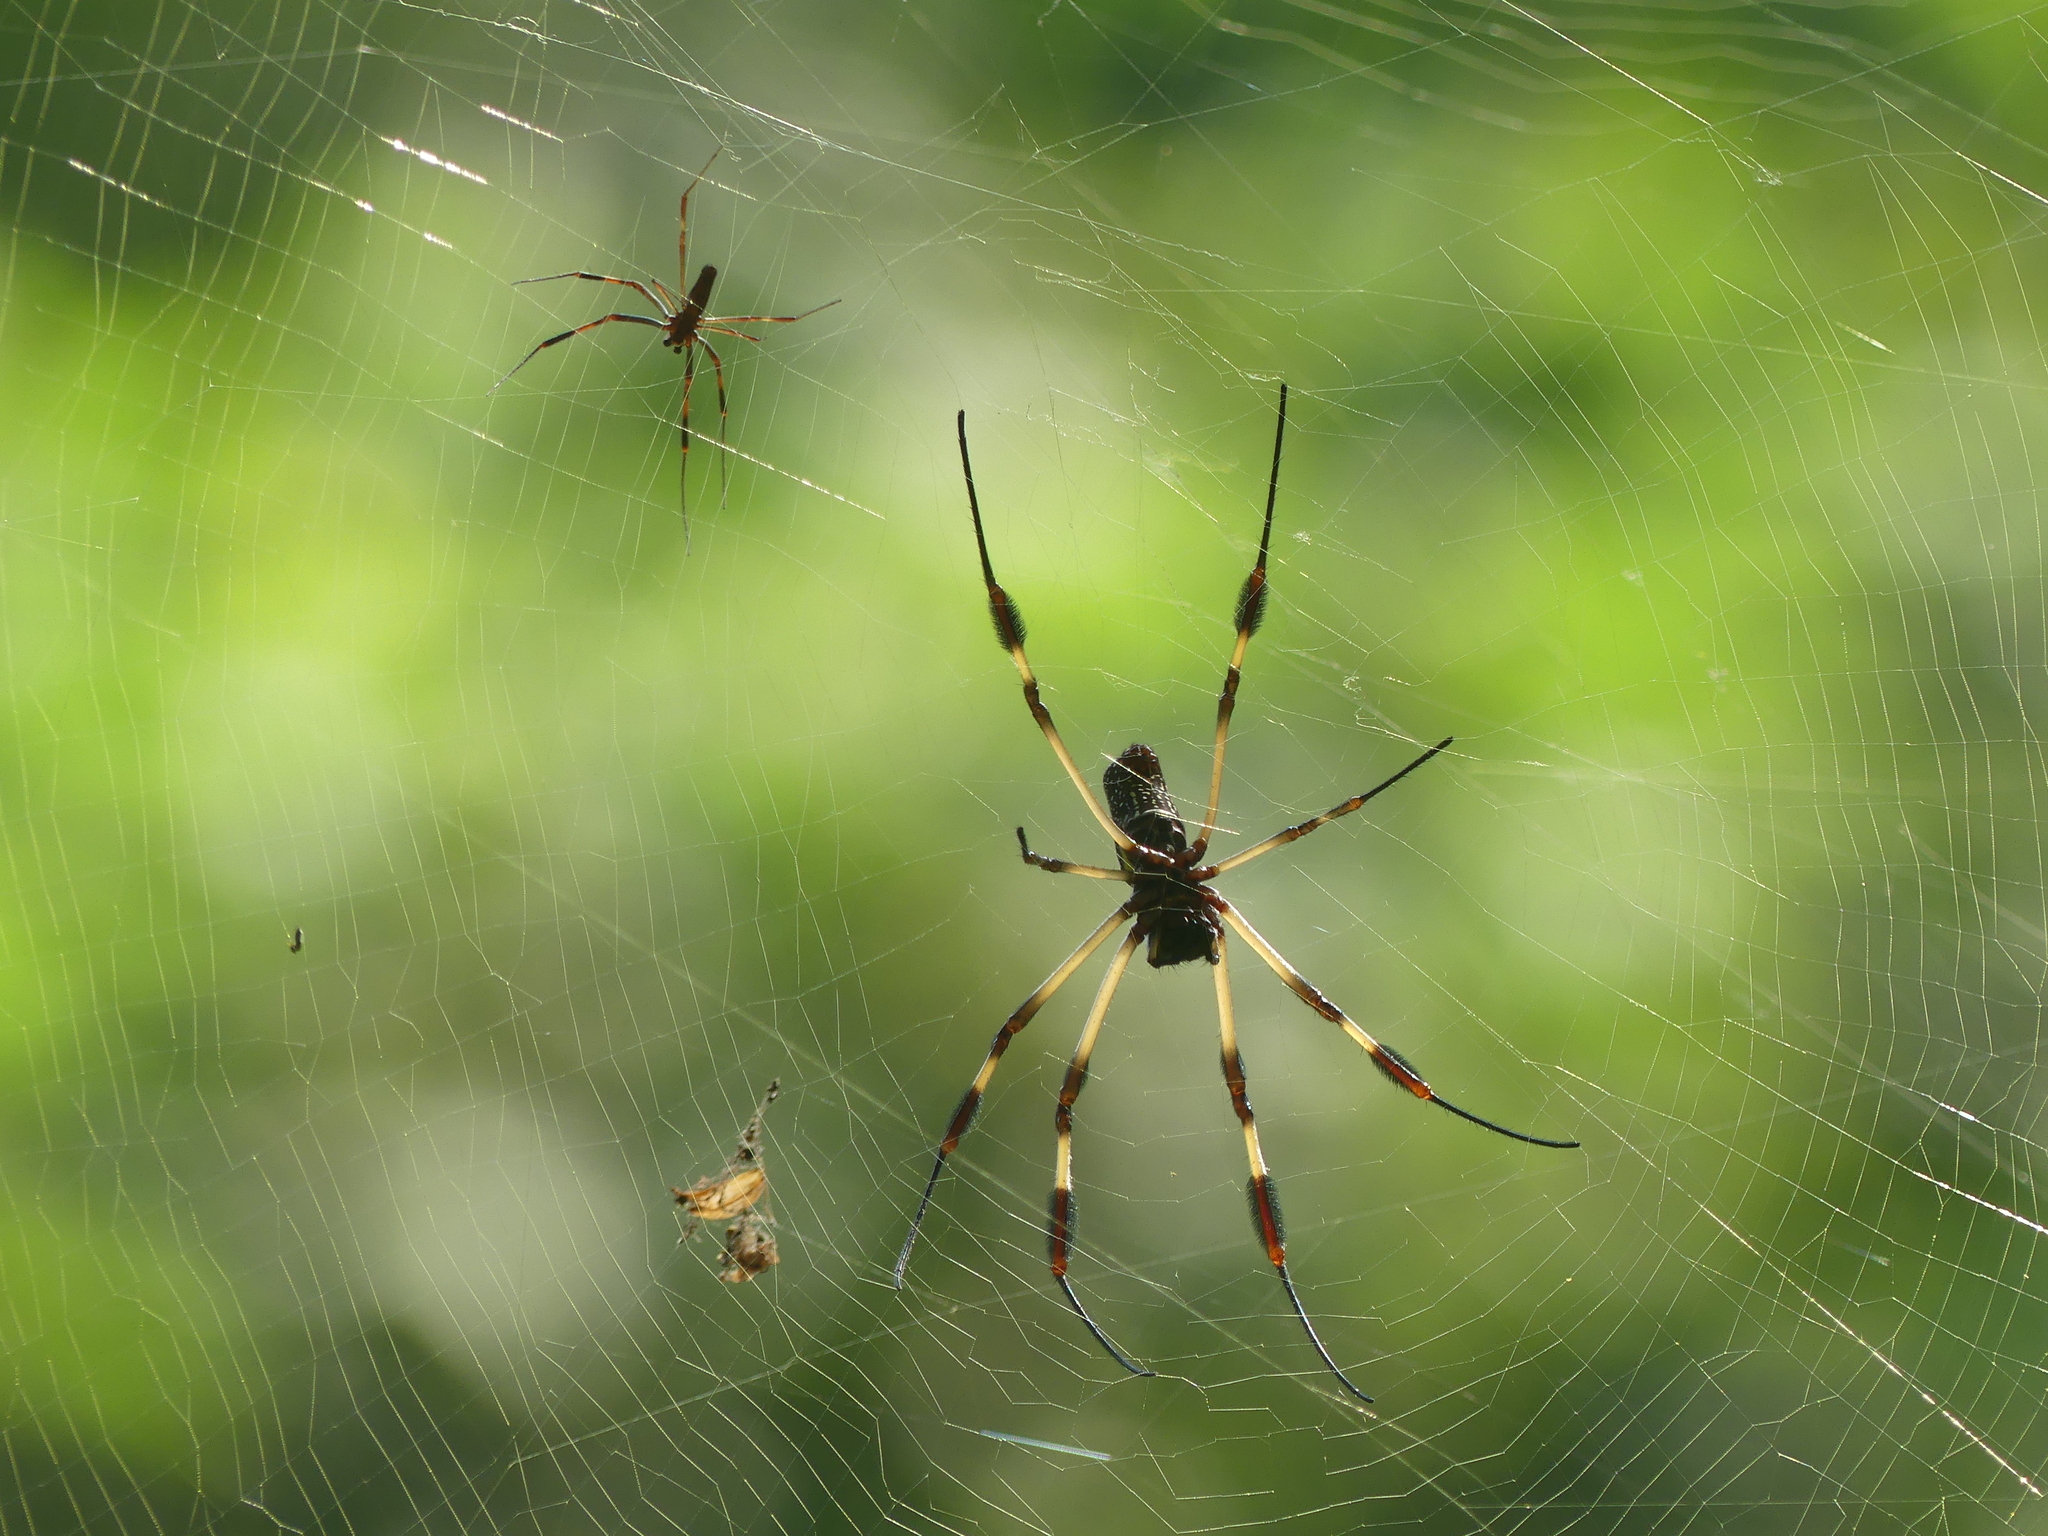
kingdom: Animalia
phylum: Arthropoda
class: Arachnida
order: Araneae
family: Araneidae
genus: Trichonephila
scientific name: Trichonephila clavipes
